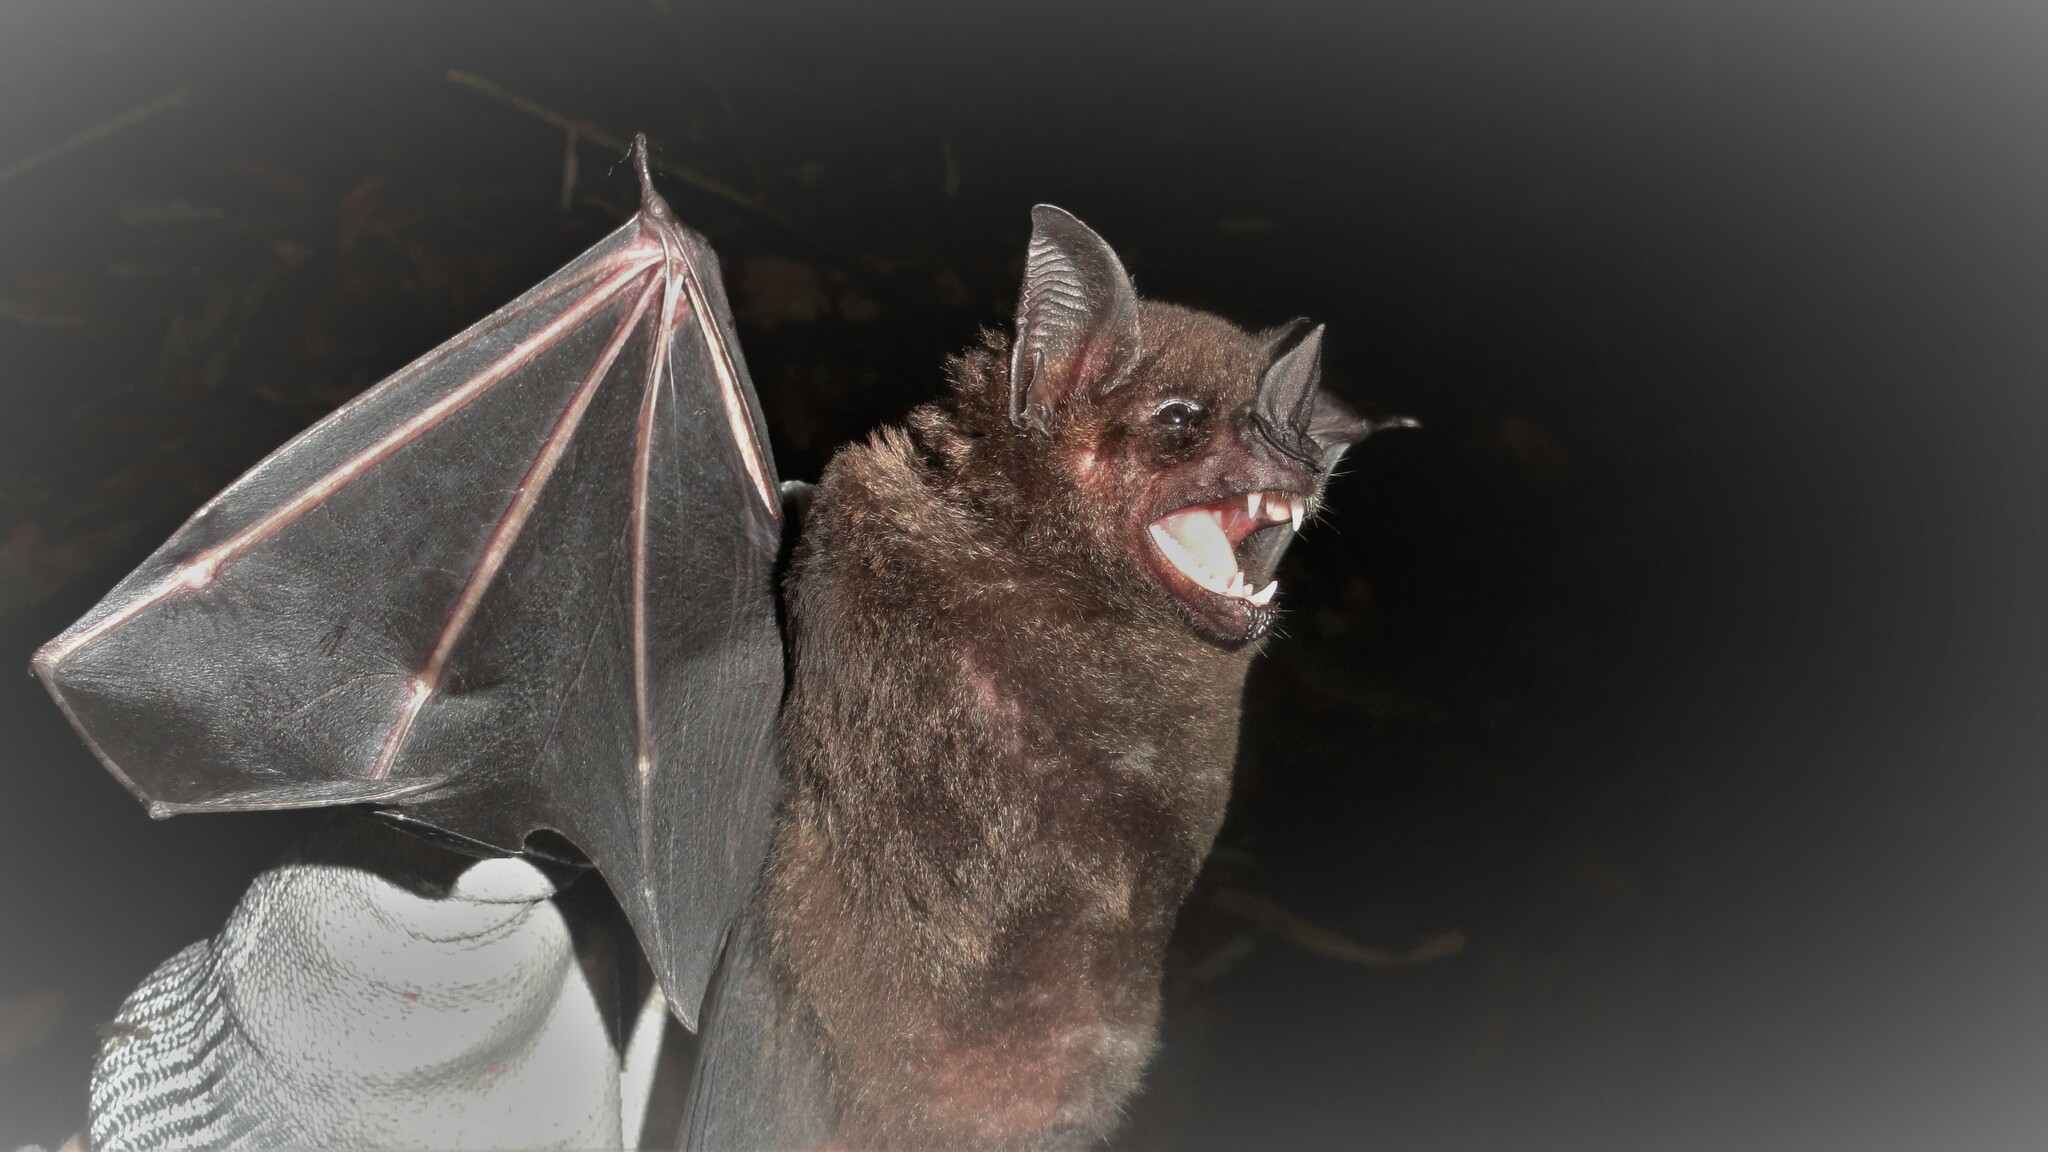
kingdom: Animalia
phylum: Chordata
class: Mammalia
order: Chiroptera
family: Phyllostomidae
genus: Phyllostomus
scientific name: Phyllostomus hastatus
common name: Greater spear-nosed bat
